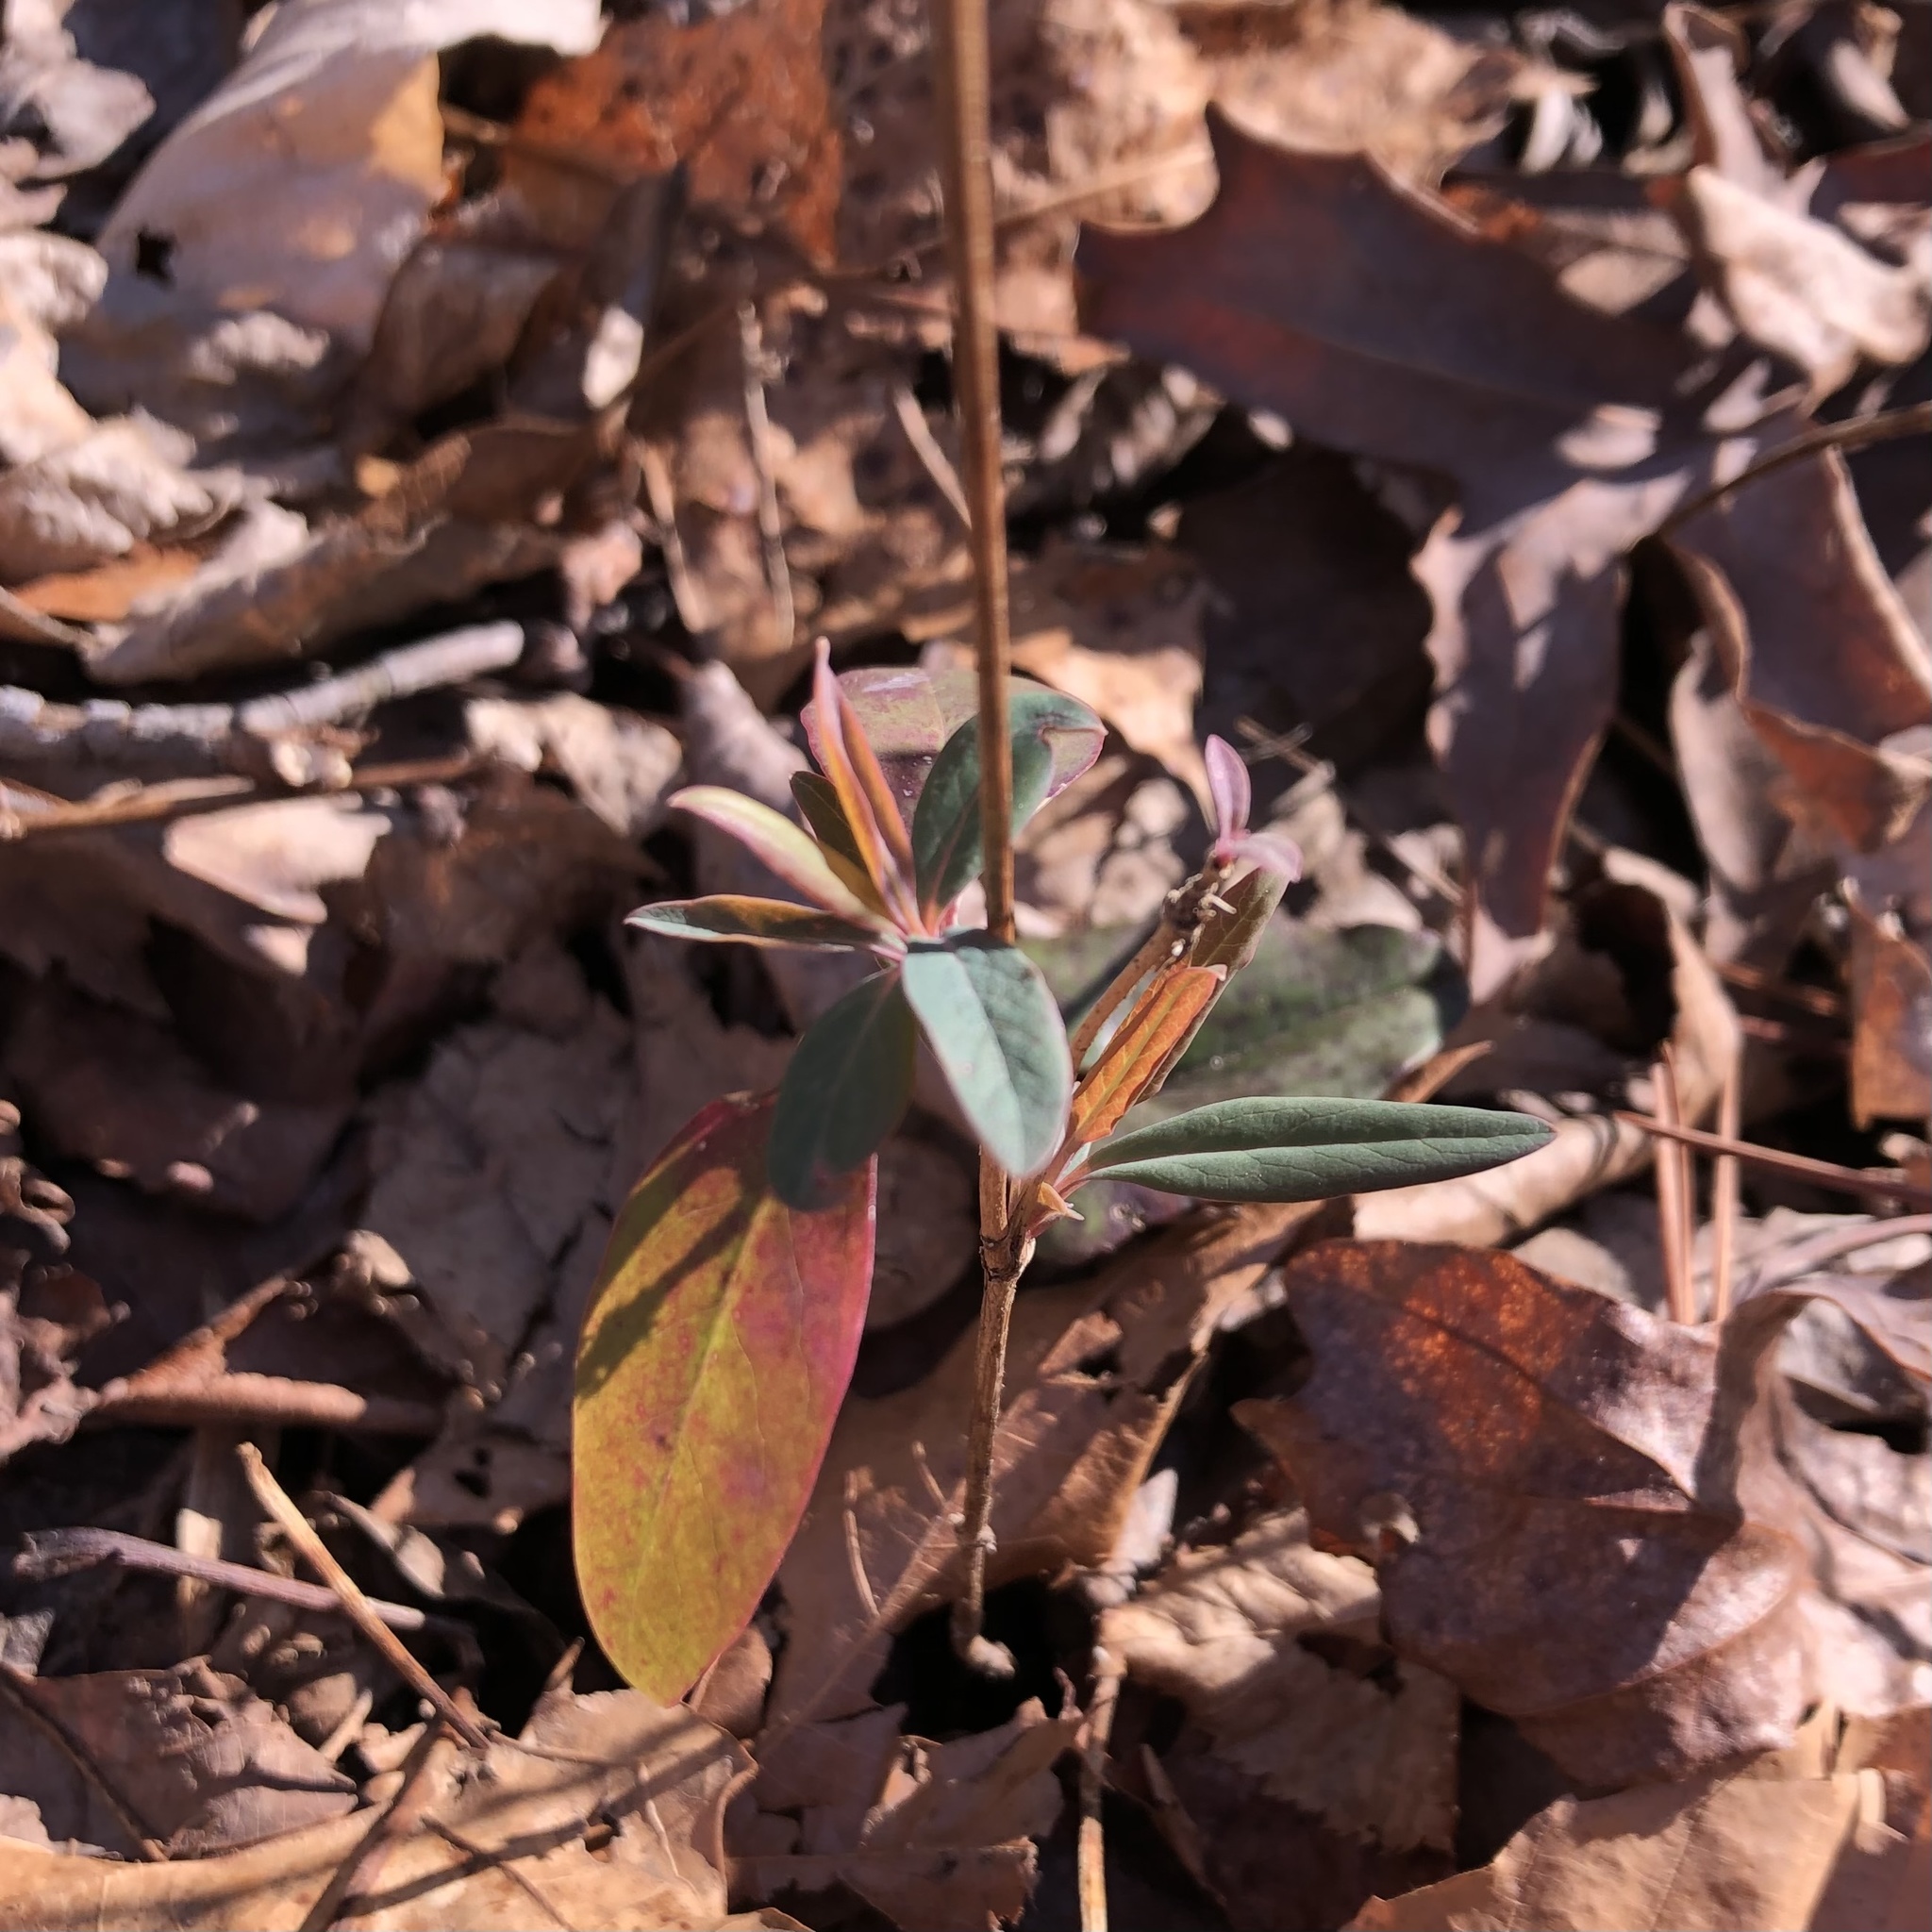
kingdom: Plantae
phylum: Tracheophyta
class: Magnoliopsida
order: Dipsacales
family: Caprifoliaceae
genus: Lonicera
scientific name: Lonicera sempervirens
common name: Coral honeysuckle
